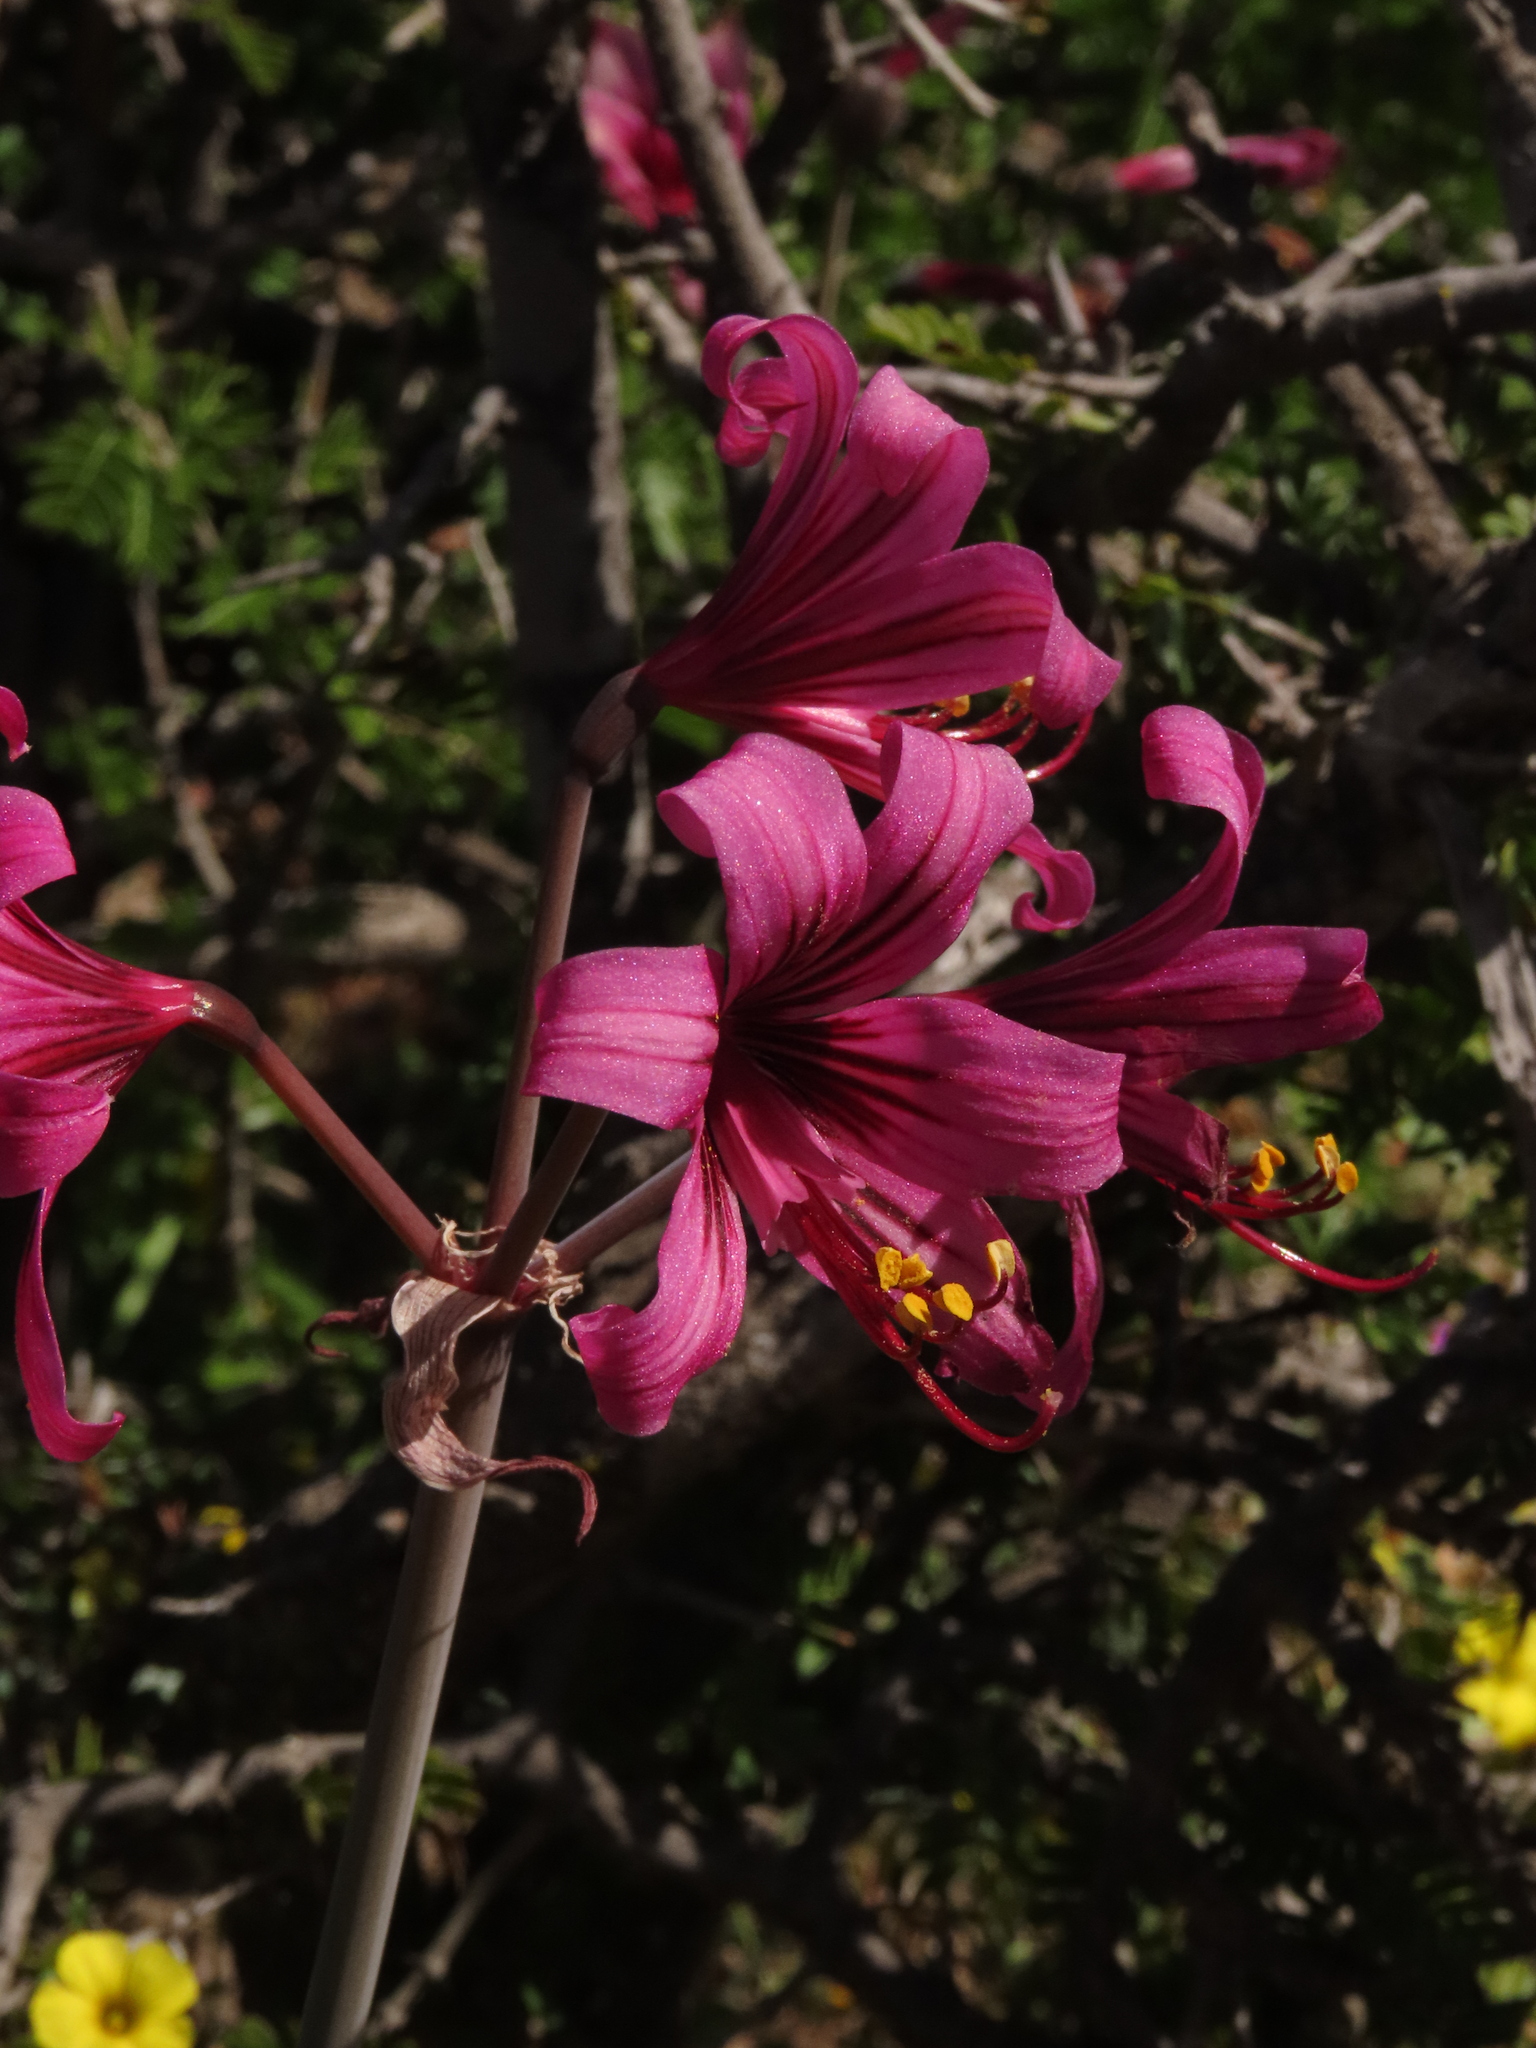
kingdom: Plantae
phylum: Tracheophyta
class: Liliopsida
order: Asparagales
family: Amaryllidaceae
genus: Phycella
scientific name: Phycella amoena
